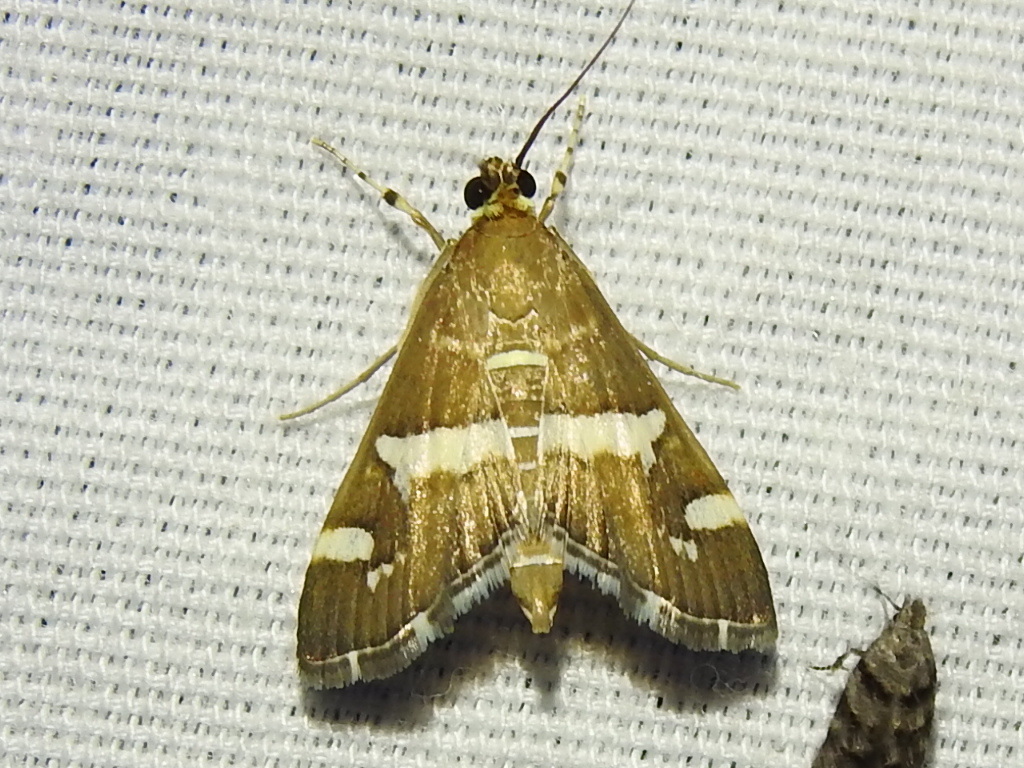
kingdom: Animalia
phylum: Arthropoda
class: Insecta
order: Lepidoptera
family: Crambidae
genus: Spoladea
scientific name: Spoladea recurvalis
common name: Beet webworm moth
